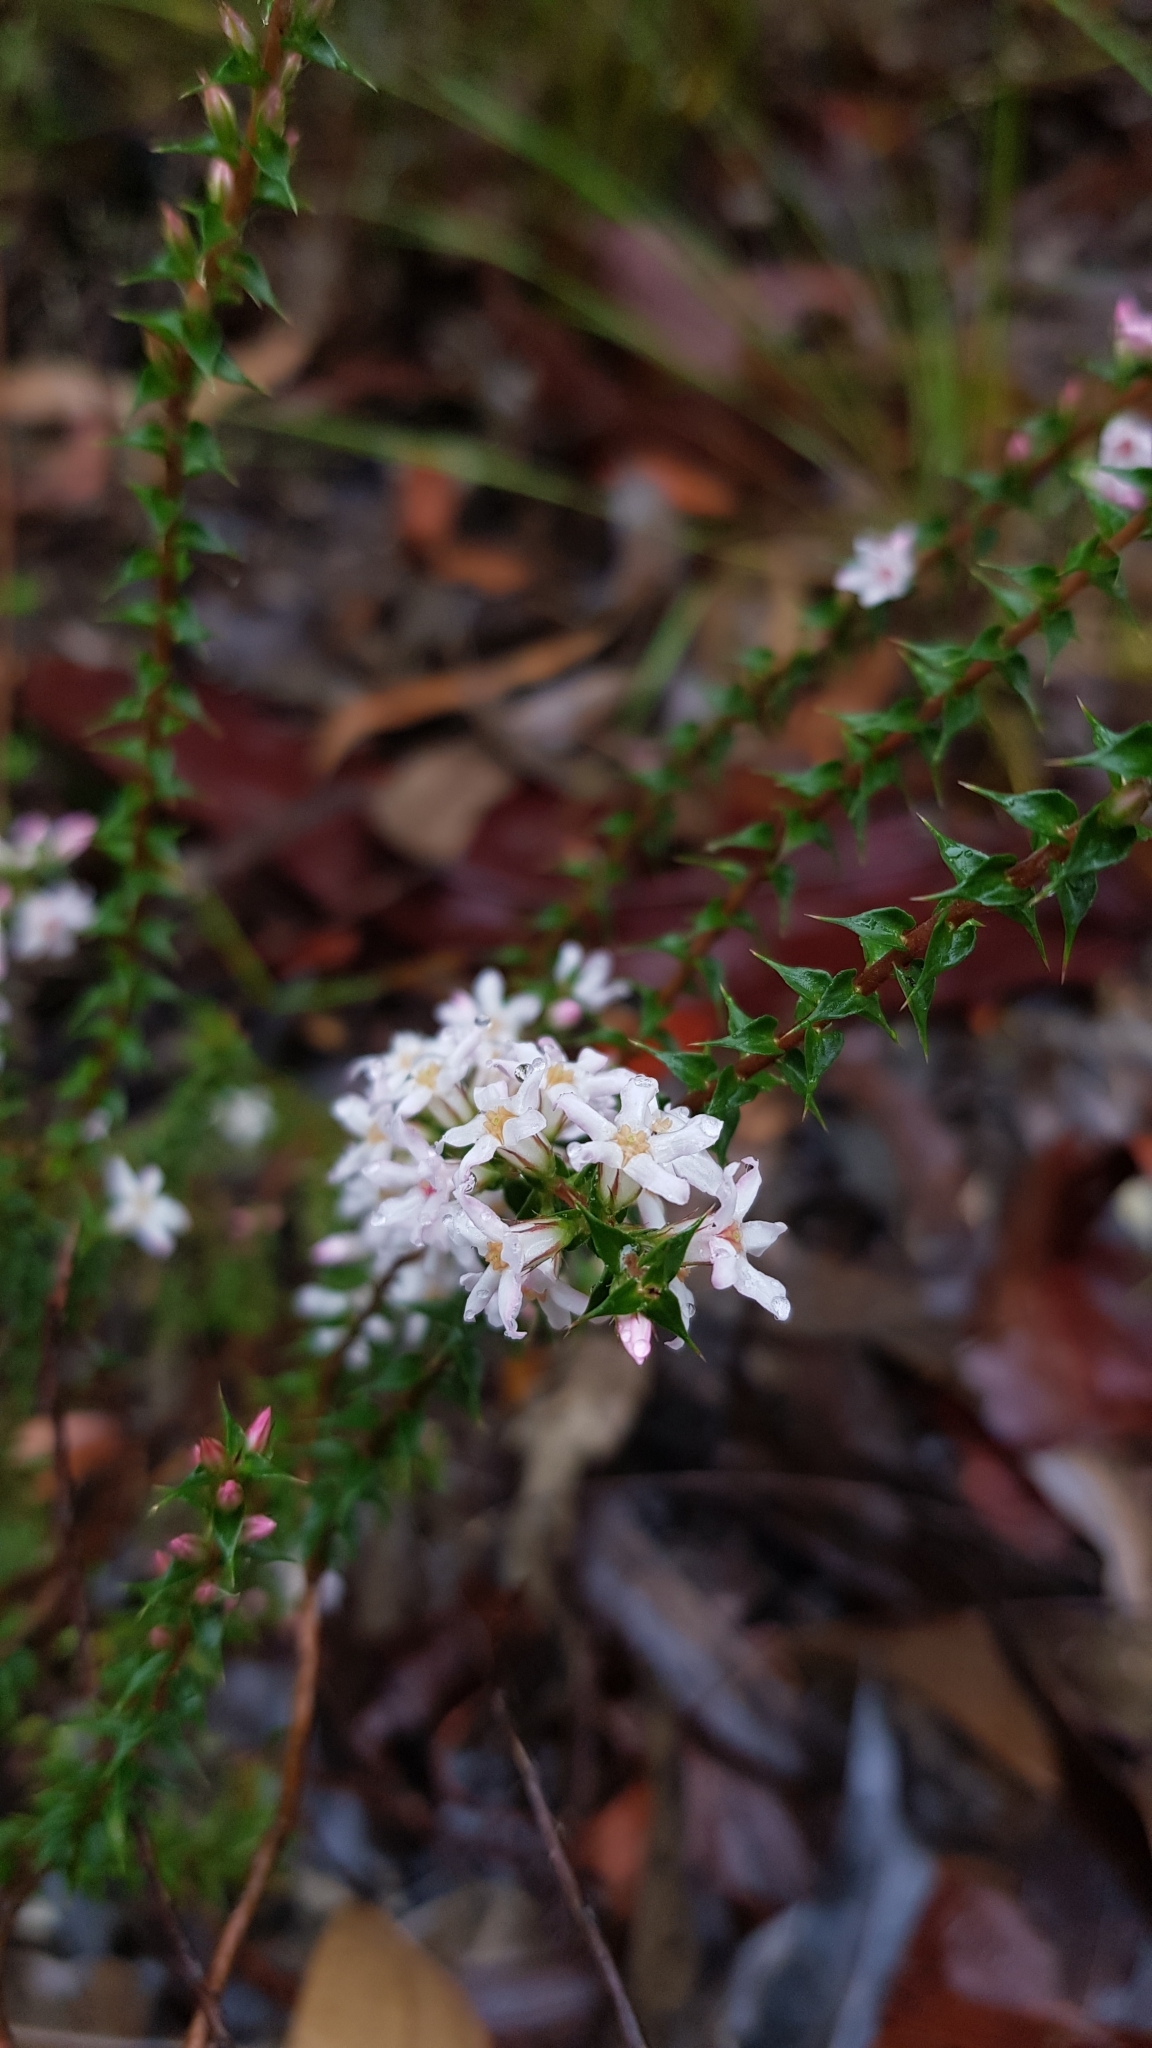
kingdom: Plantae
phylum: Tracheophyta
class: Magnoliopsida
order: Ericales
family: Ericaceae
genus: Epacris
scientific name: Epacris pulchella
